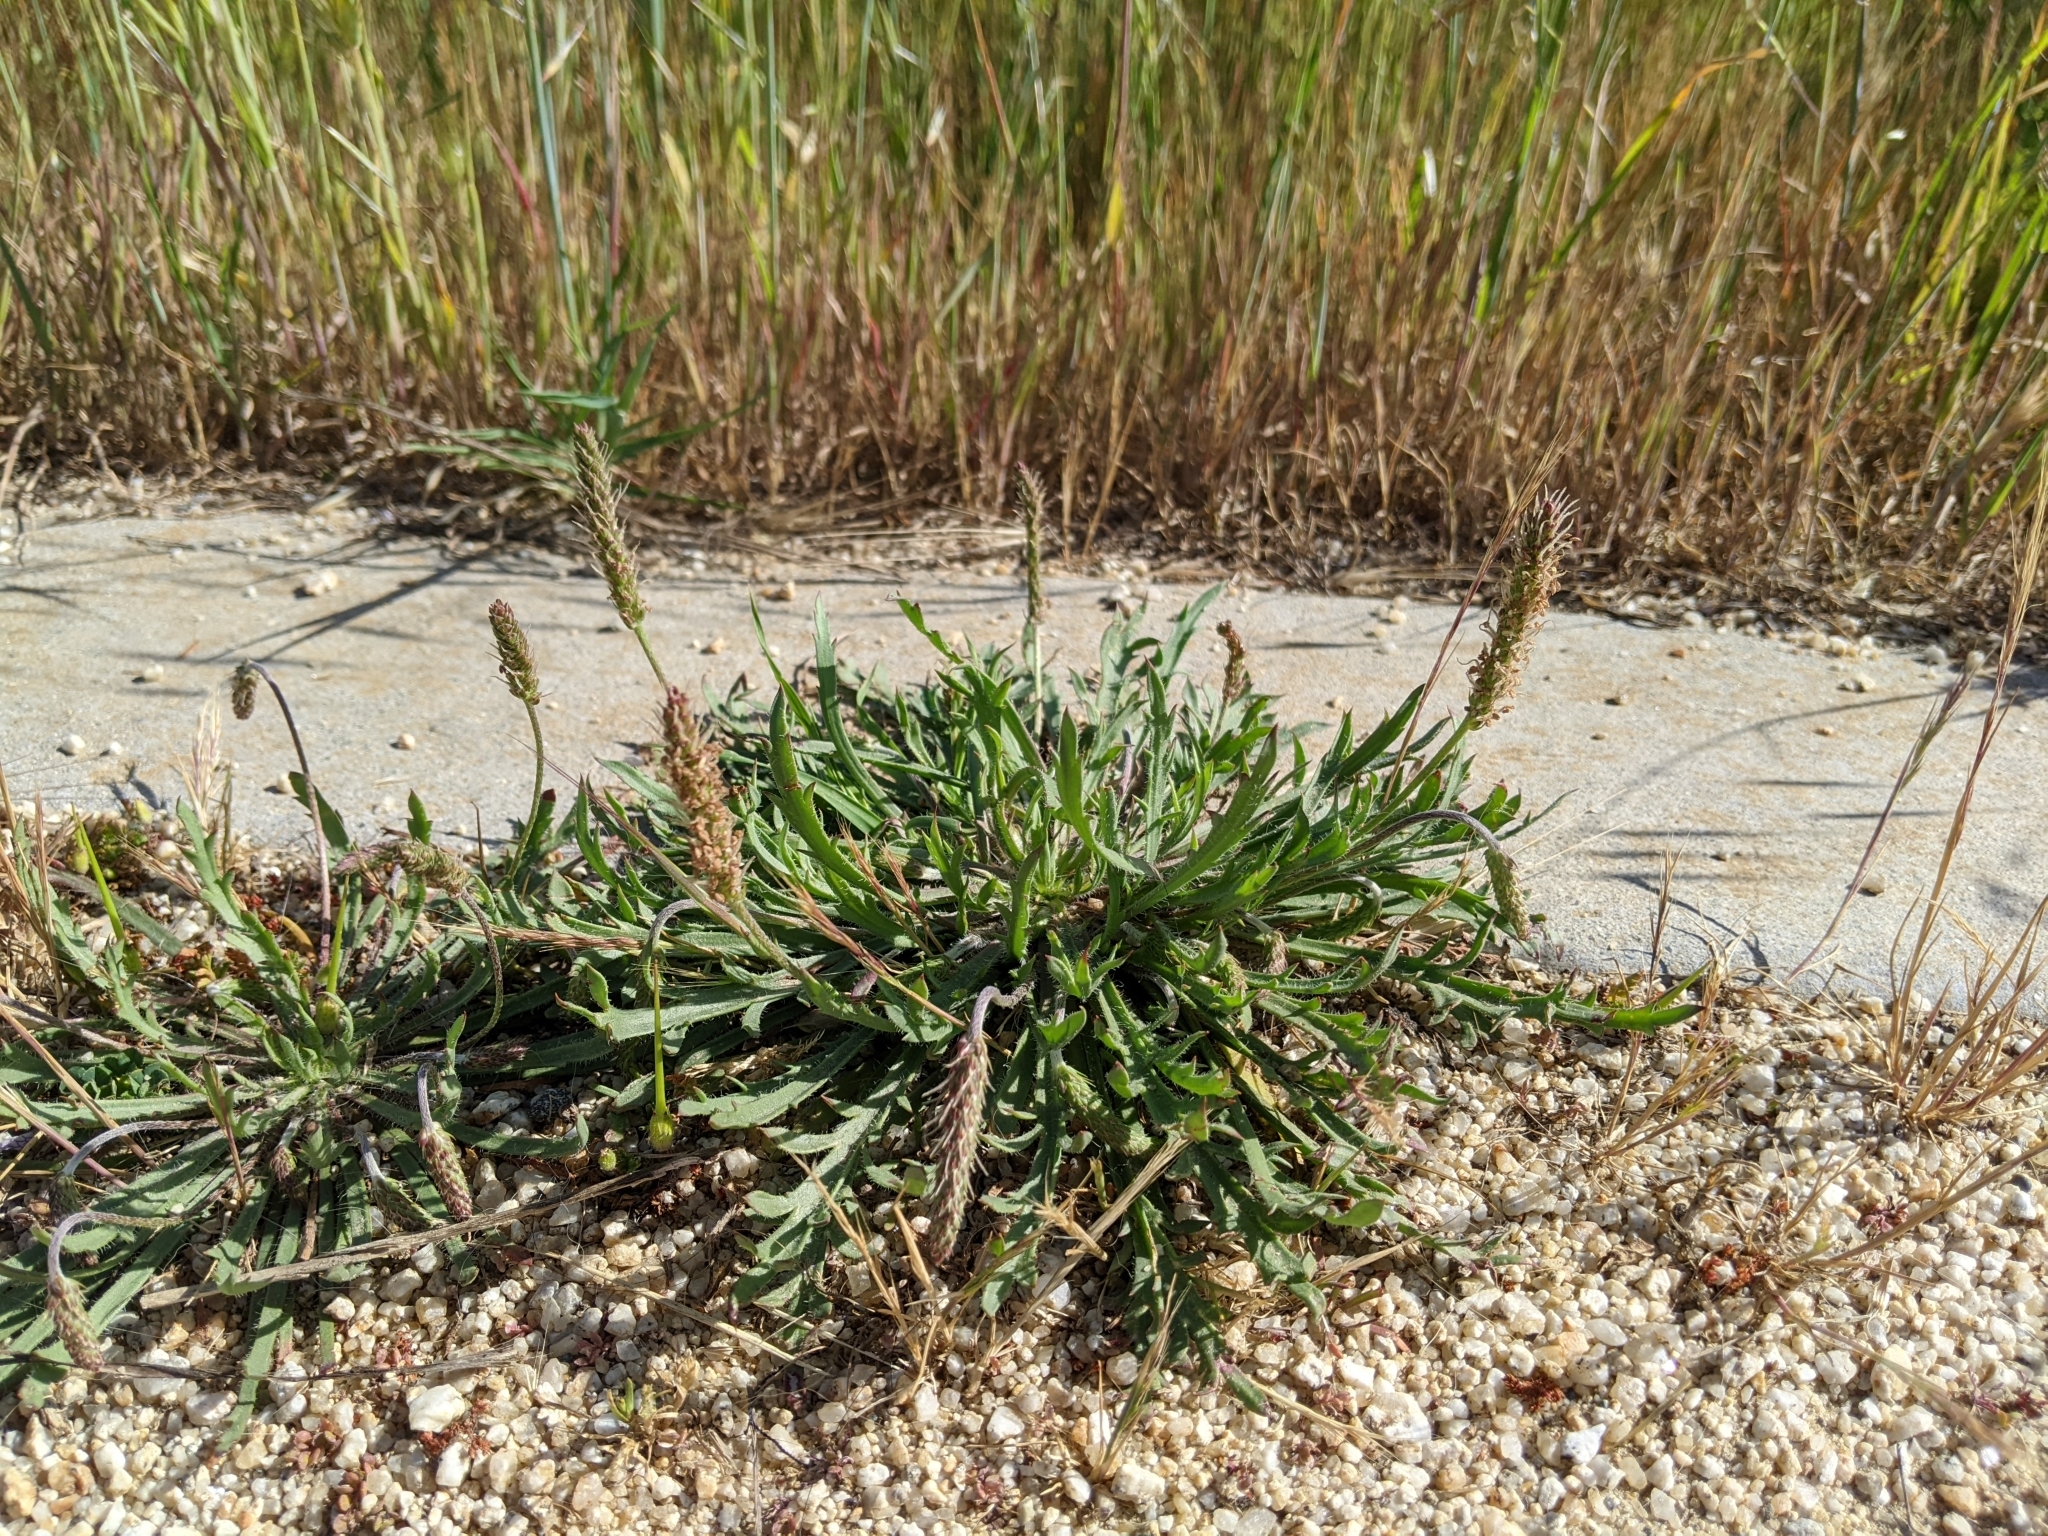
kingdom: Plantae
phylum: Tracheophyta
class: Magnoliopsida
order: Lamiales
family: Plantaginaceae
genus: Plantago
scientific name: Plantago coronopus
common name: Buck's-horn plantain
